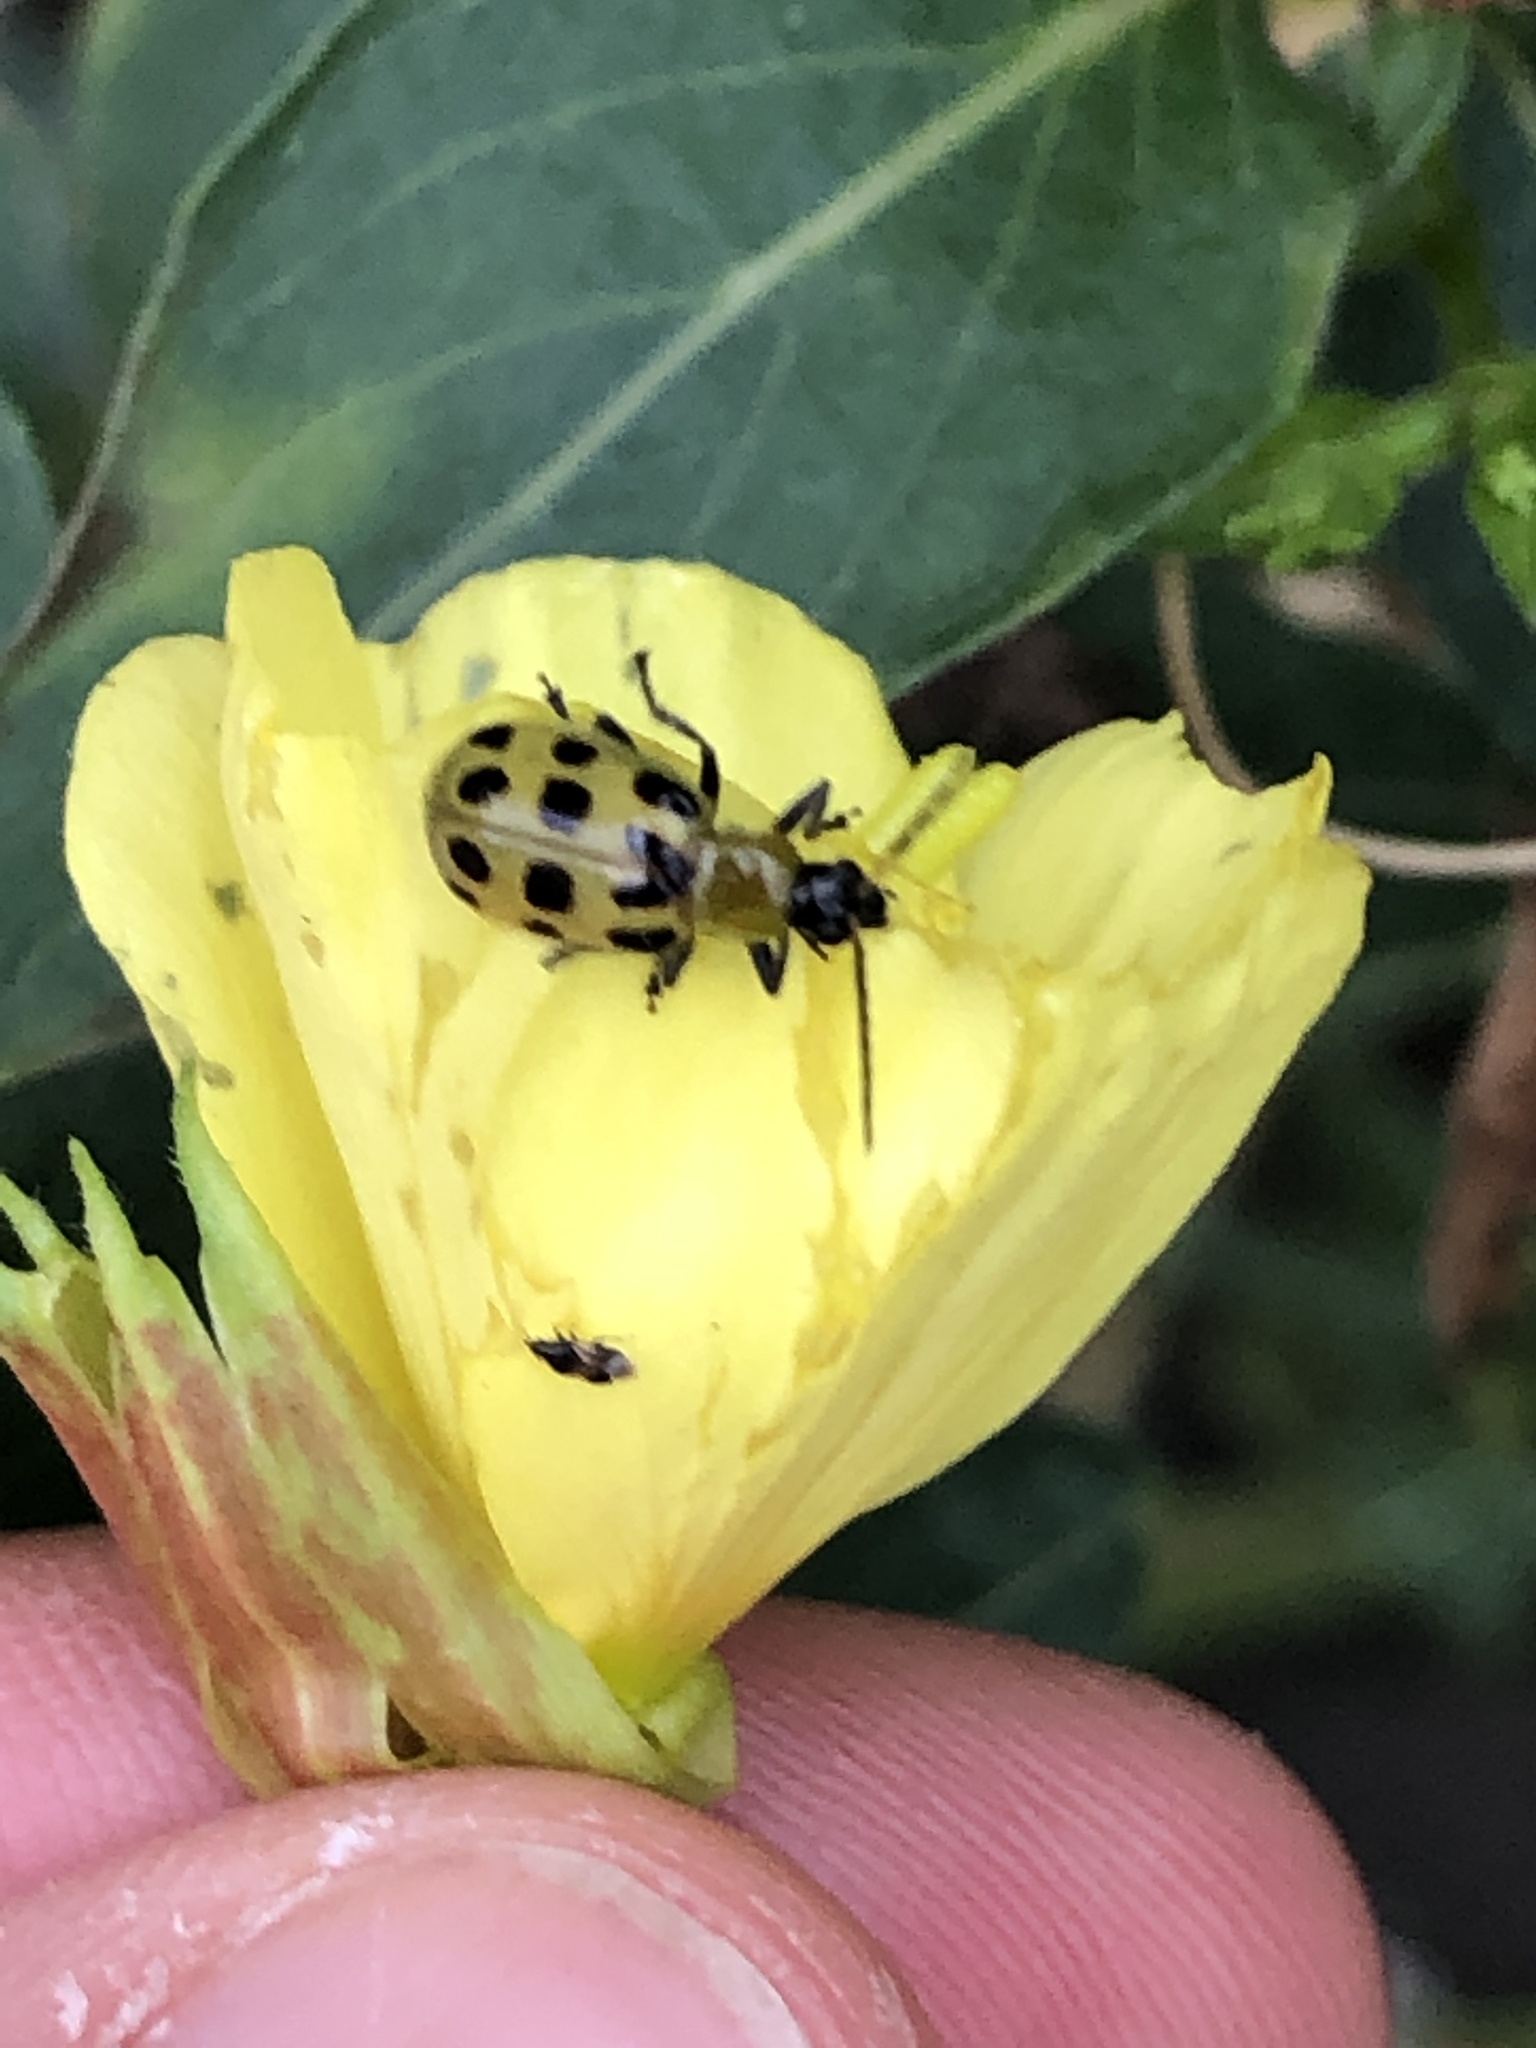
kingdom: Animalia
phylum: Arthropoda
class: Insecta
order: Coleoptera
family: Chrysomelidae
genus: Diabrotica
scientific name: Diabrotica undecimpunctata
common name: Spotted cucumber beetle
